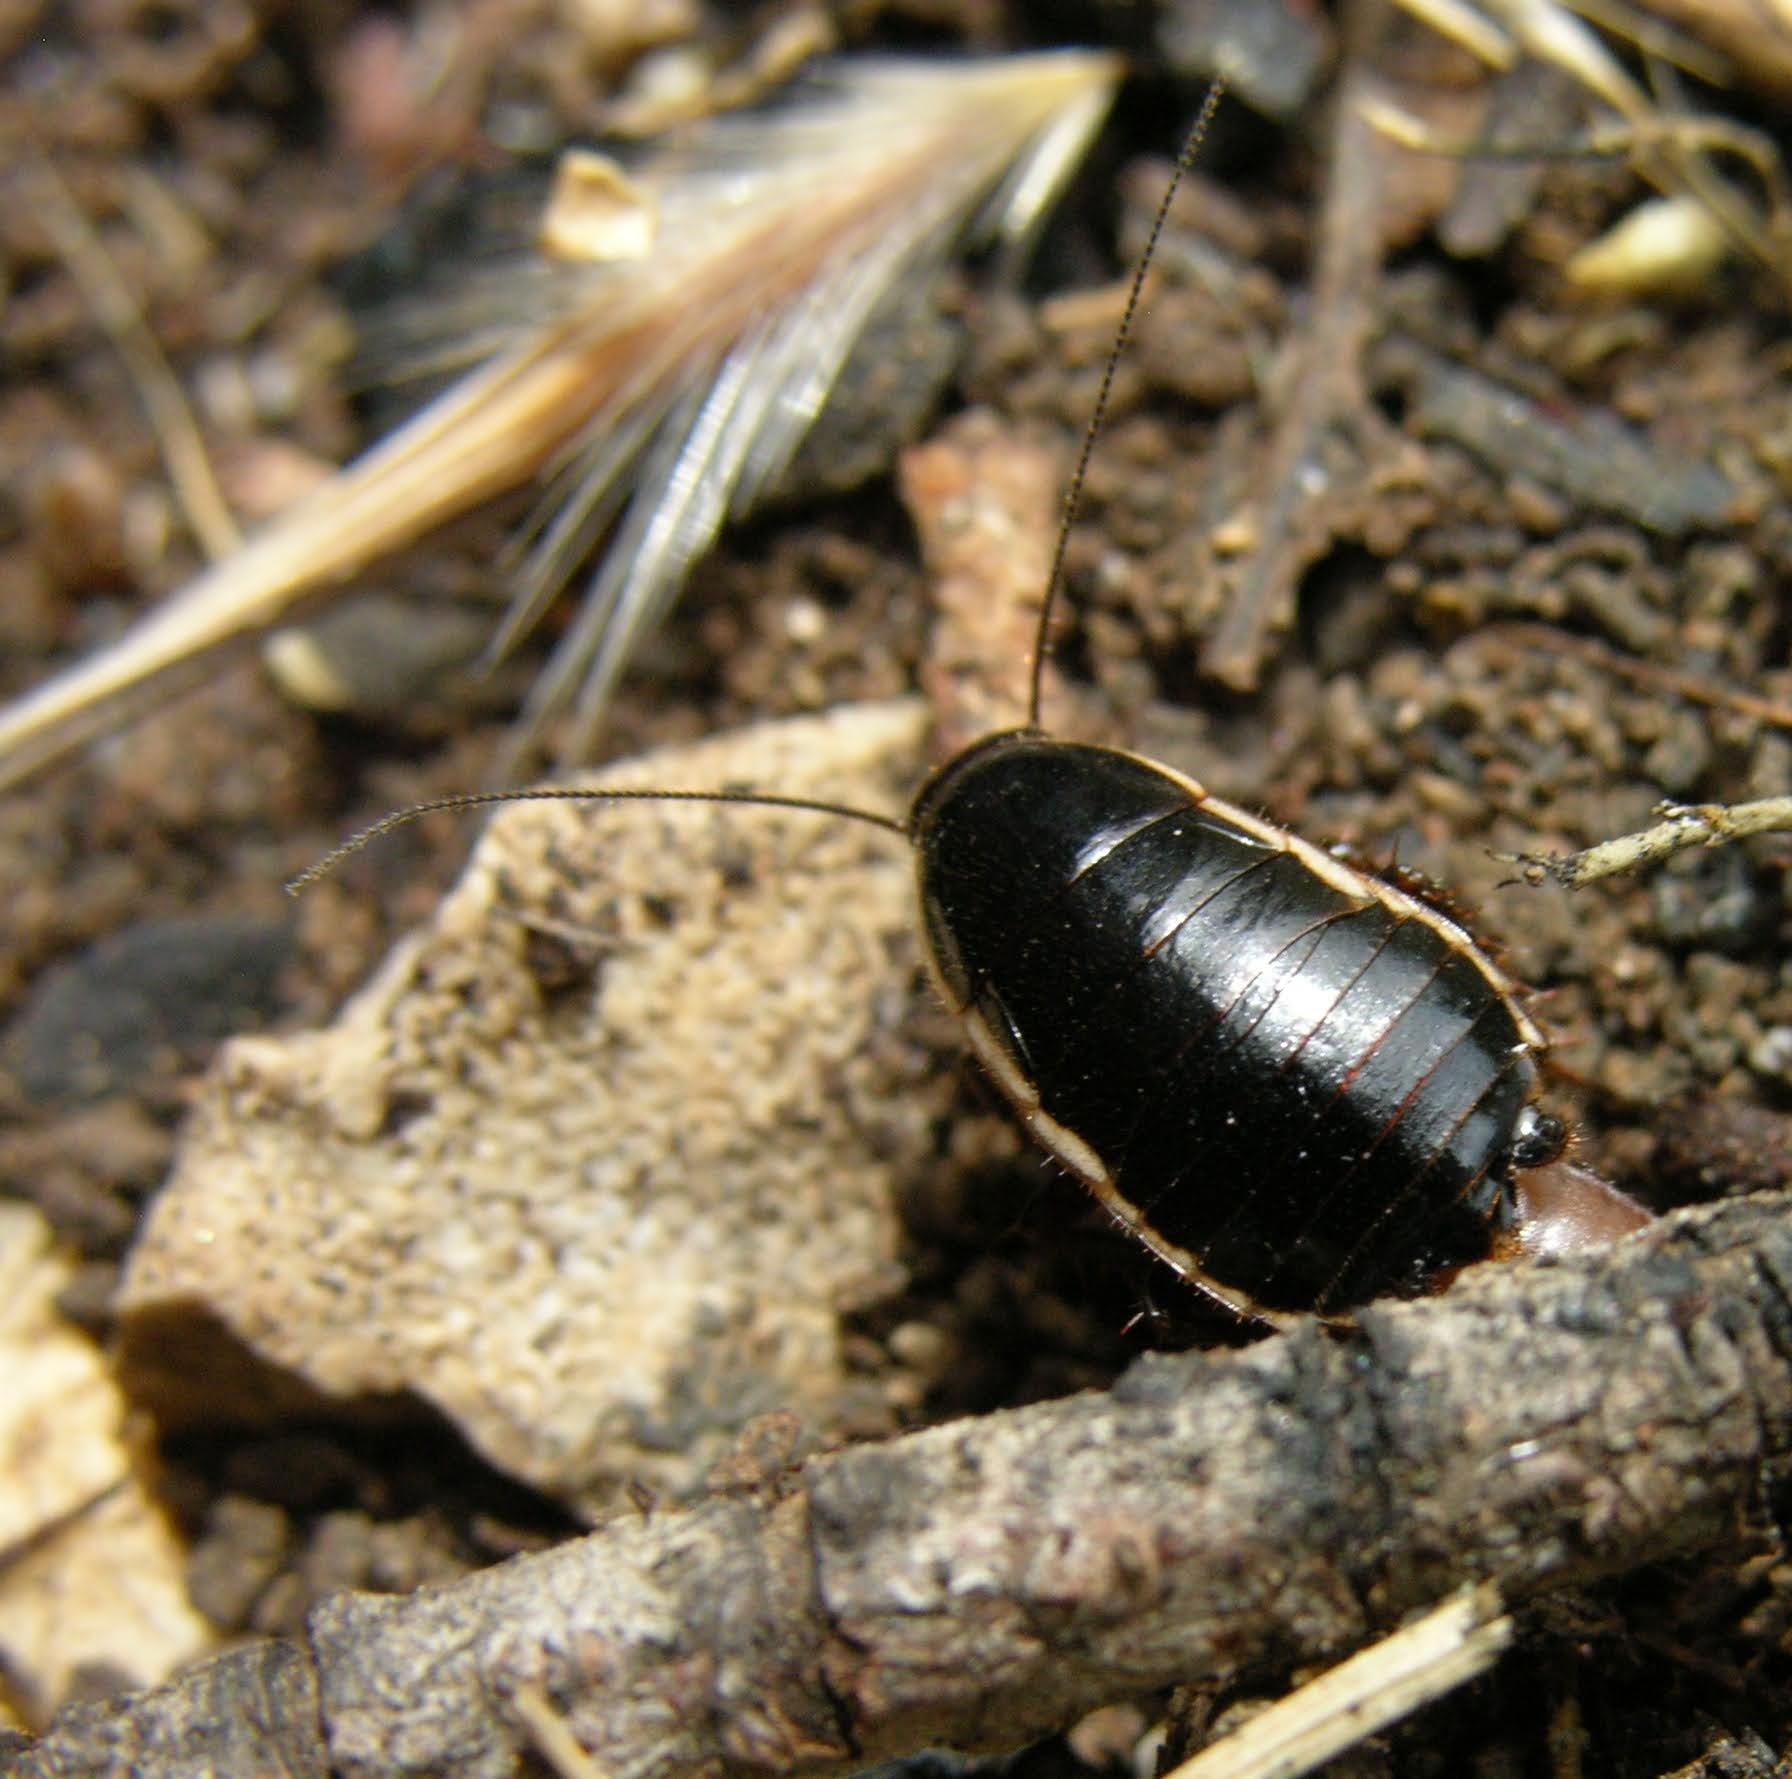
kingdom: Animalia
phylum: Arthropoda
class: Insecta
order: Blattodea
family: Ectobiidae
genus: Loboptera
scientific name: Loboptera decipiens
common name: Lobe-winged cockroach
